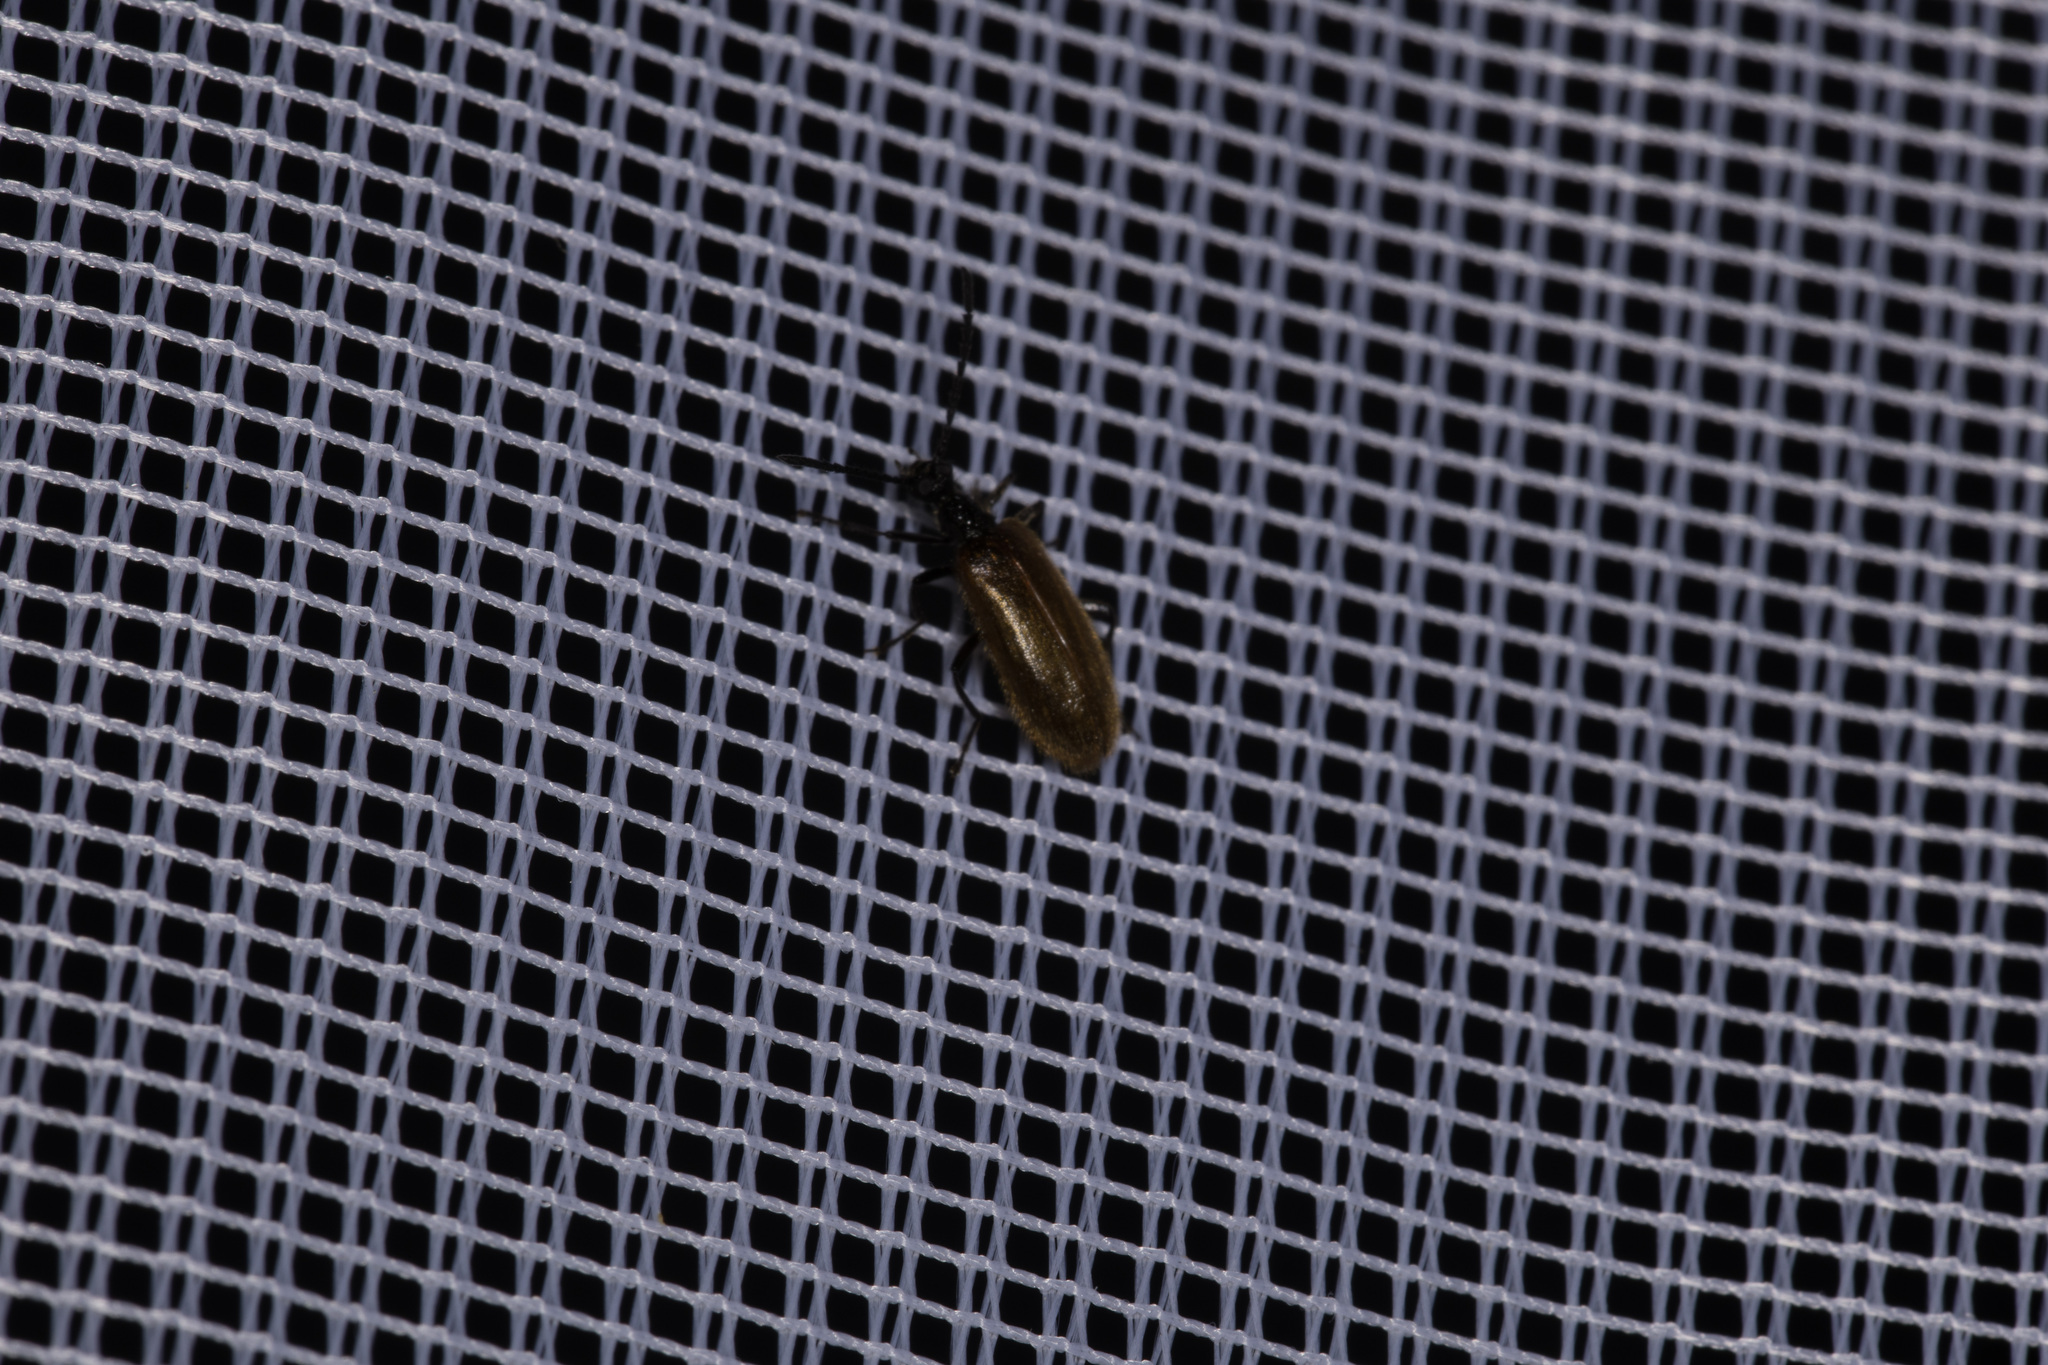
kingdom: Animalia
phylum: Arthropoda
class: Insecta
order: Coleoptera
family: Tenebrionidae
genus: Lagria
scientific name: Lagria hirta
